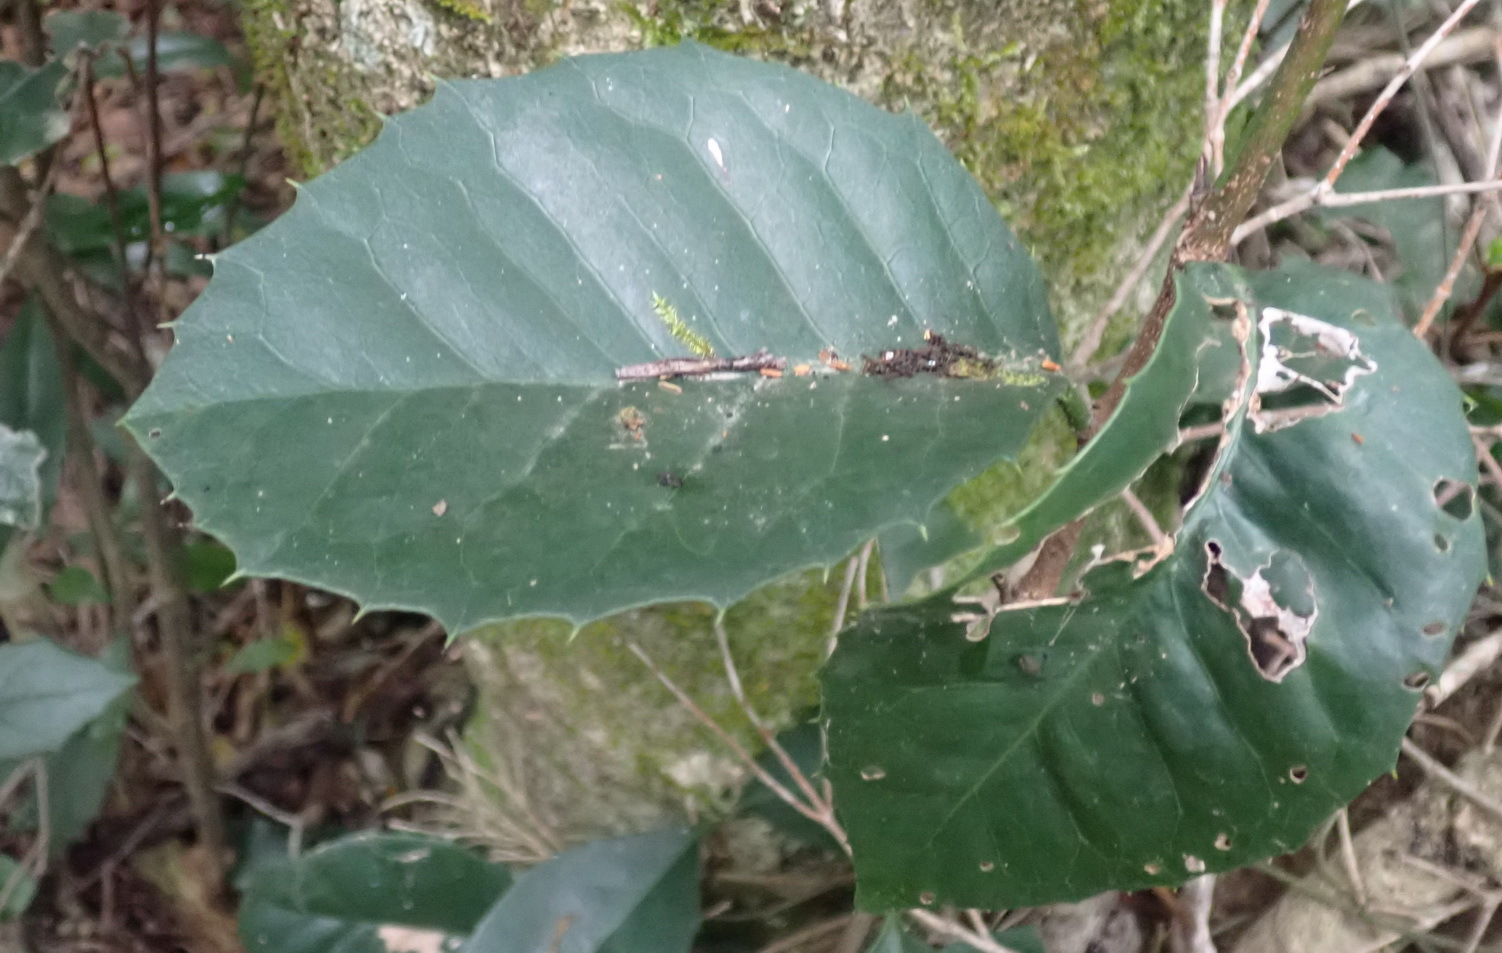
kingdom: Plantae
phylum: Tracheophyta
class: Magnoliopsida
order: Celastrales
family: Celastraceae
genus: Elaeodendron
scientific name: Elaeodendron croceum
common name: Saffron
